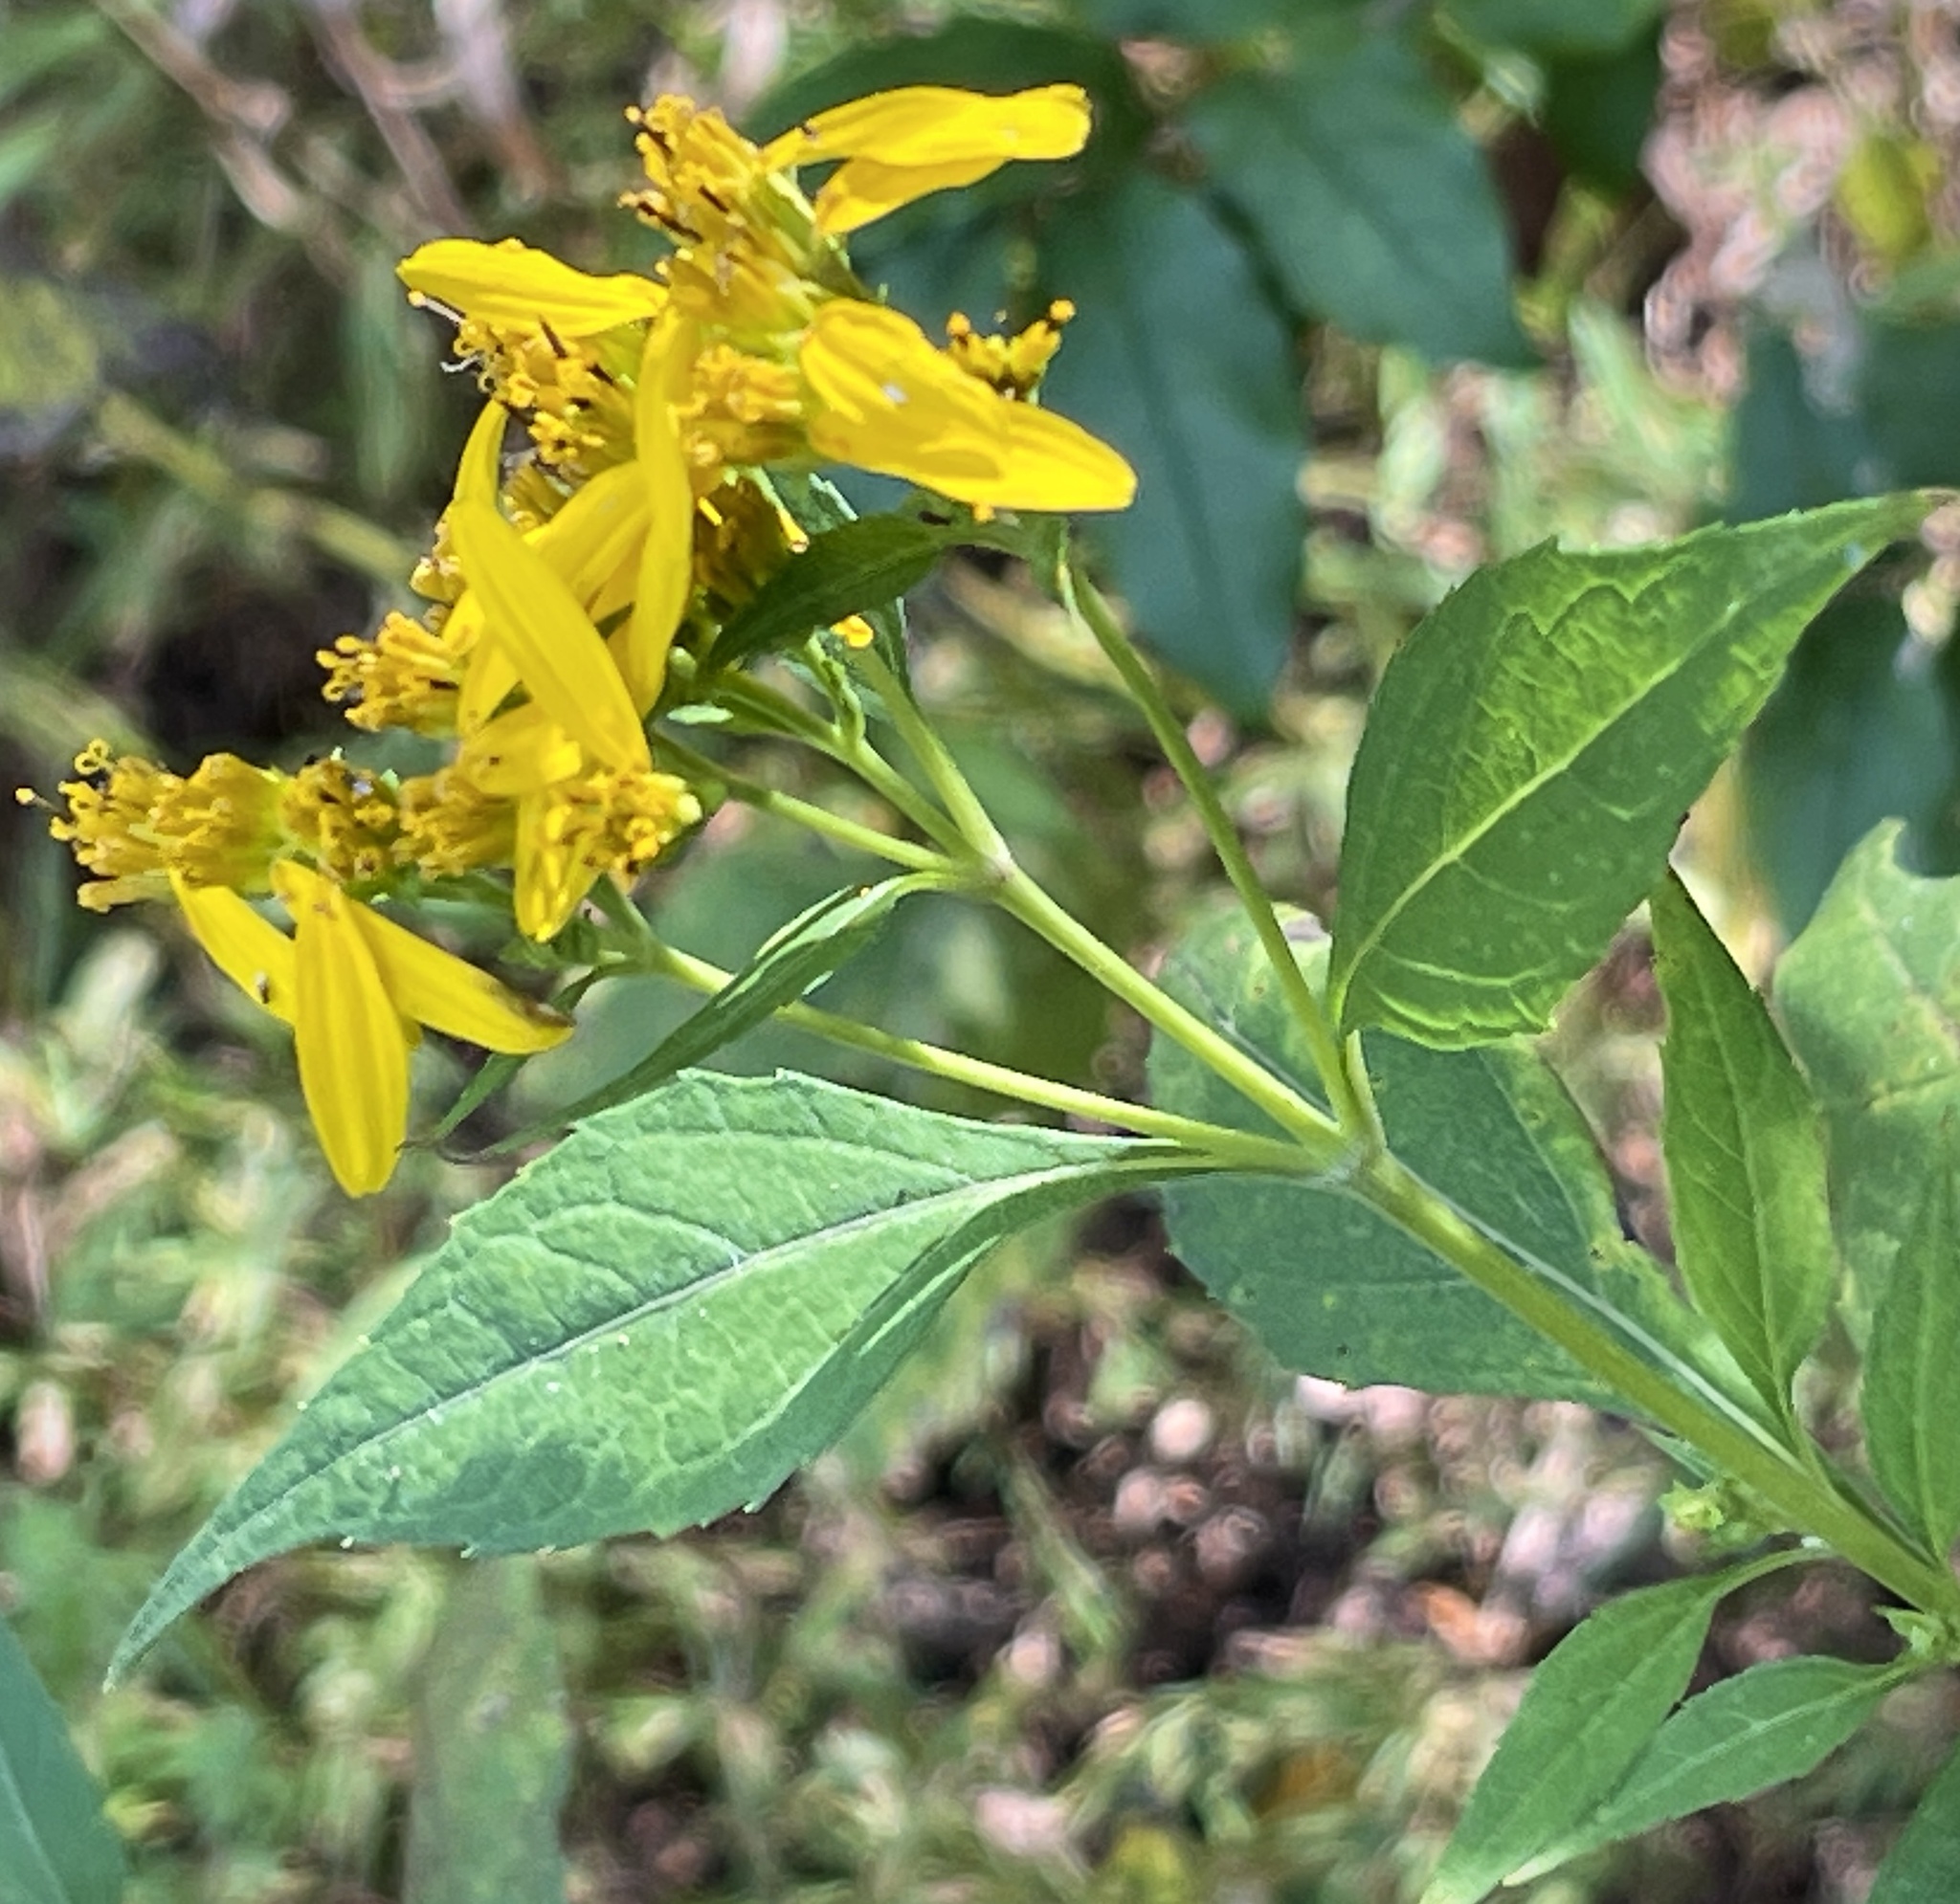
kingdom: Plantae
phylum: Tracheophyta
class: Magnoliopsida
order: Asterales
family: Asteraceae
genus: Verbesina
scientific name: Verbesina occidentalis
